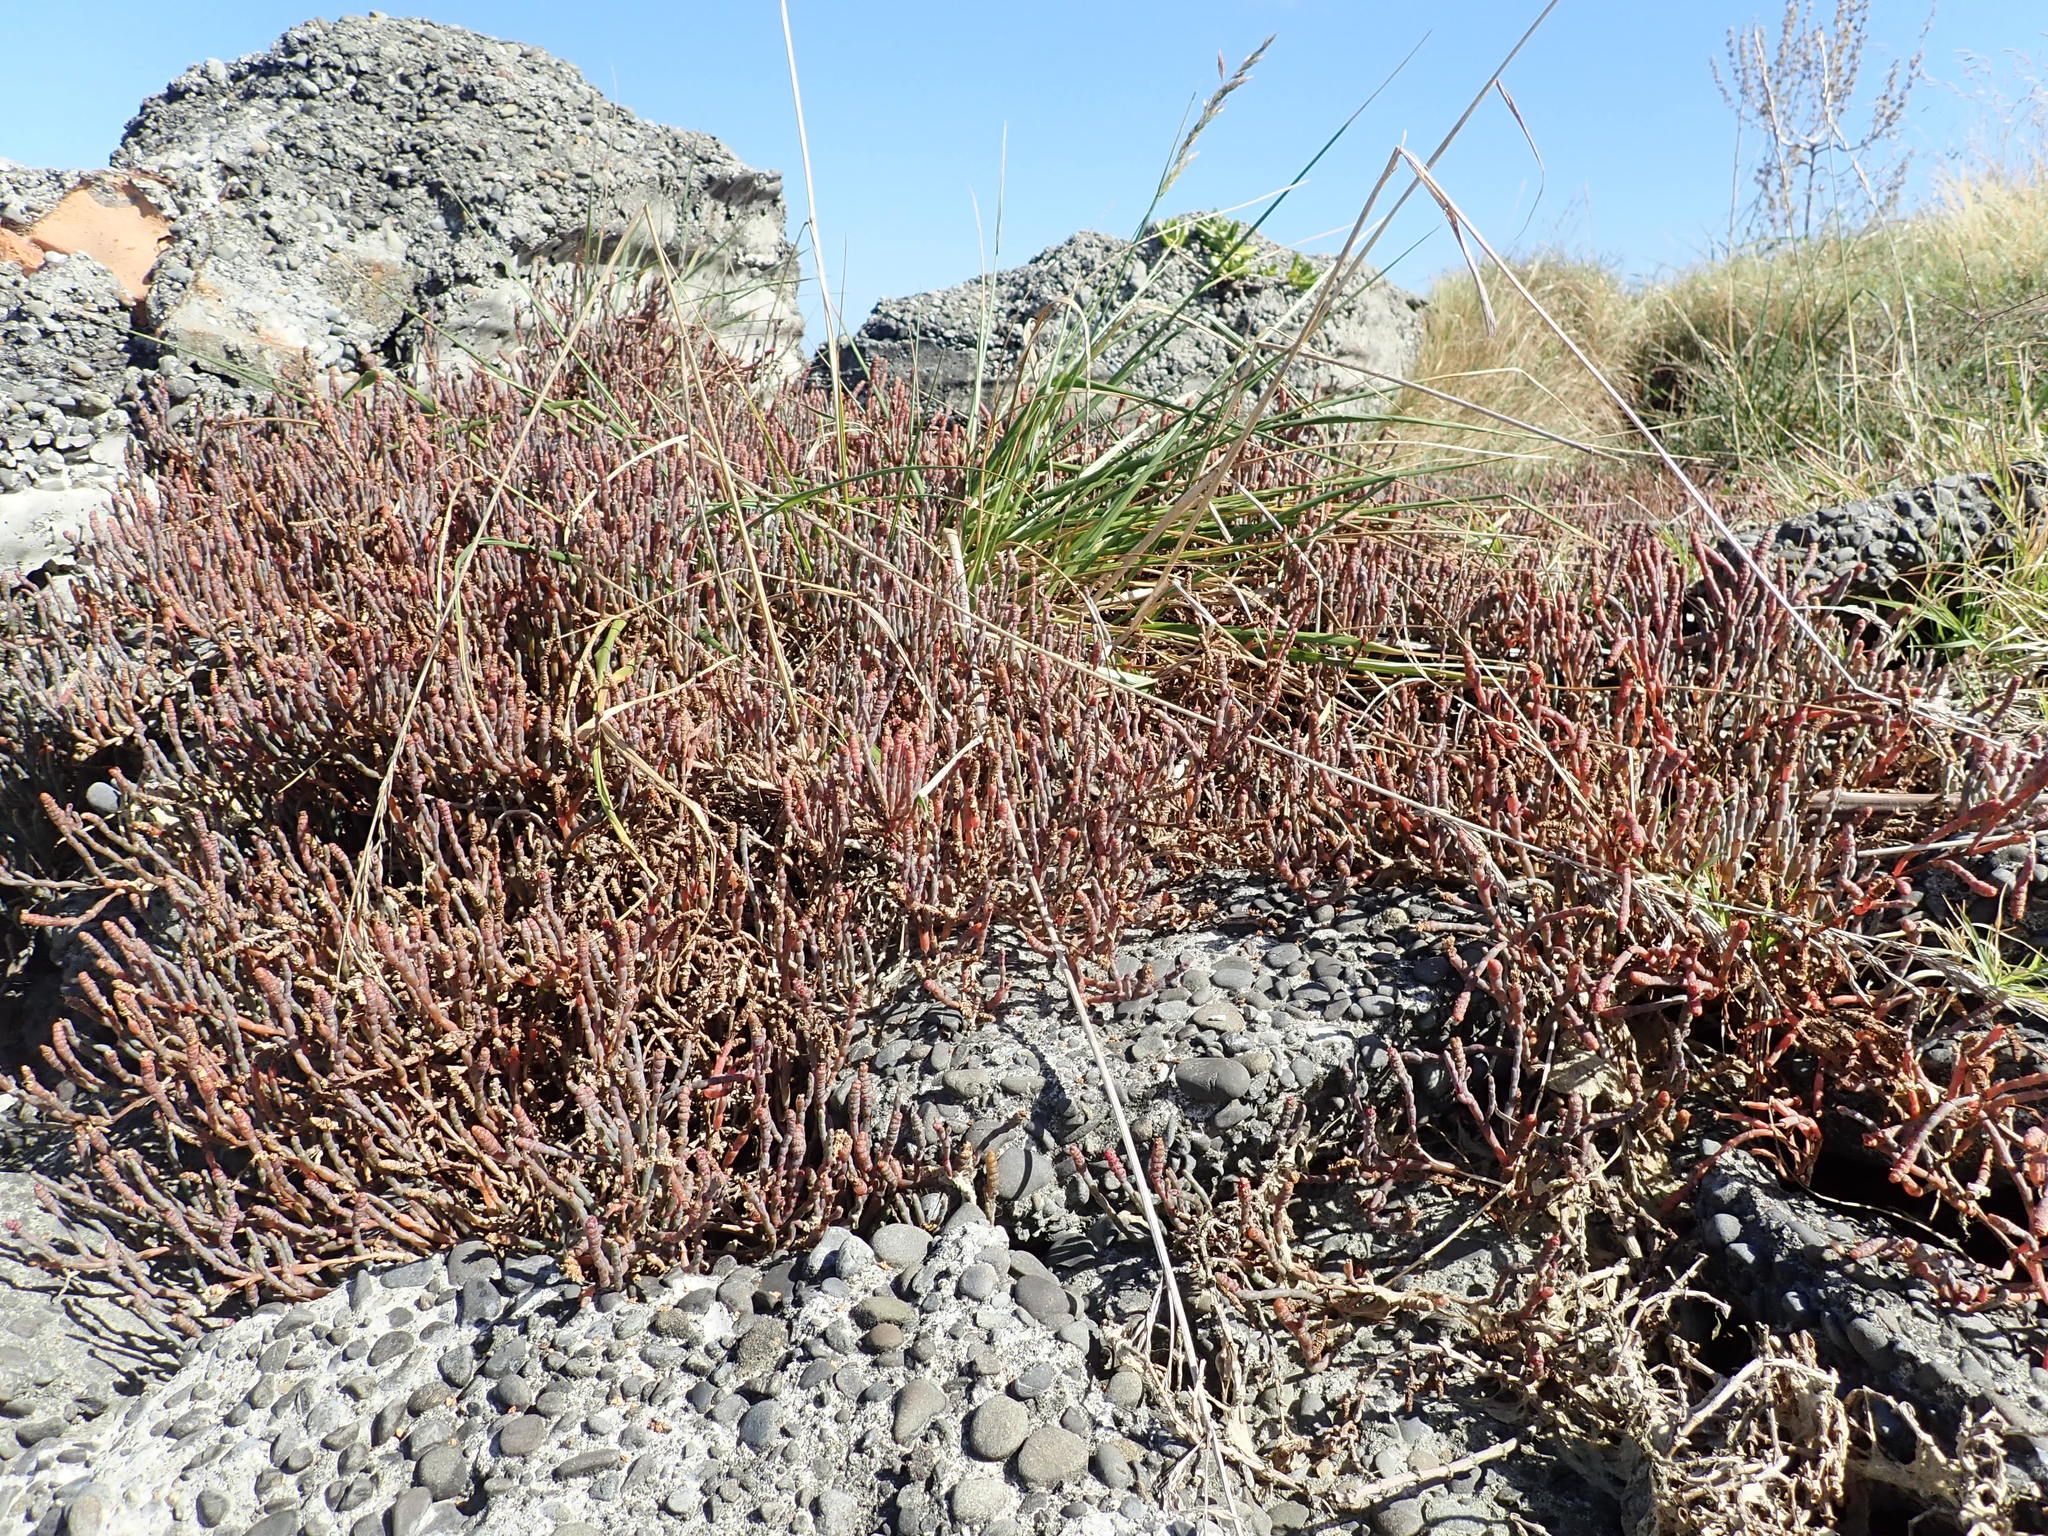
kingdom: Plantae
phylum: Tracheophyta
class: Magnoliopsida
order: Caryophyllales
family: Amaranthaceae
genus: Salicornia
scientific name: Salicornia quinqueflora
